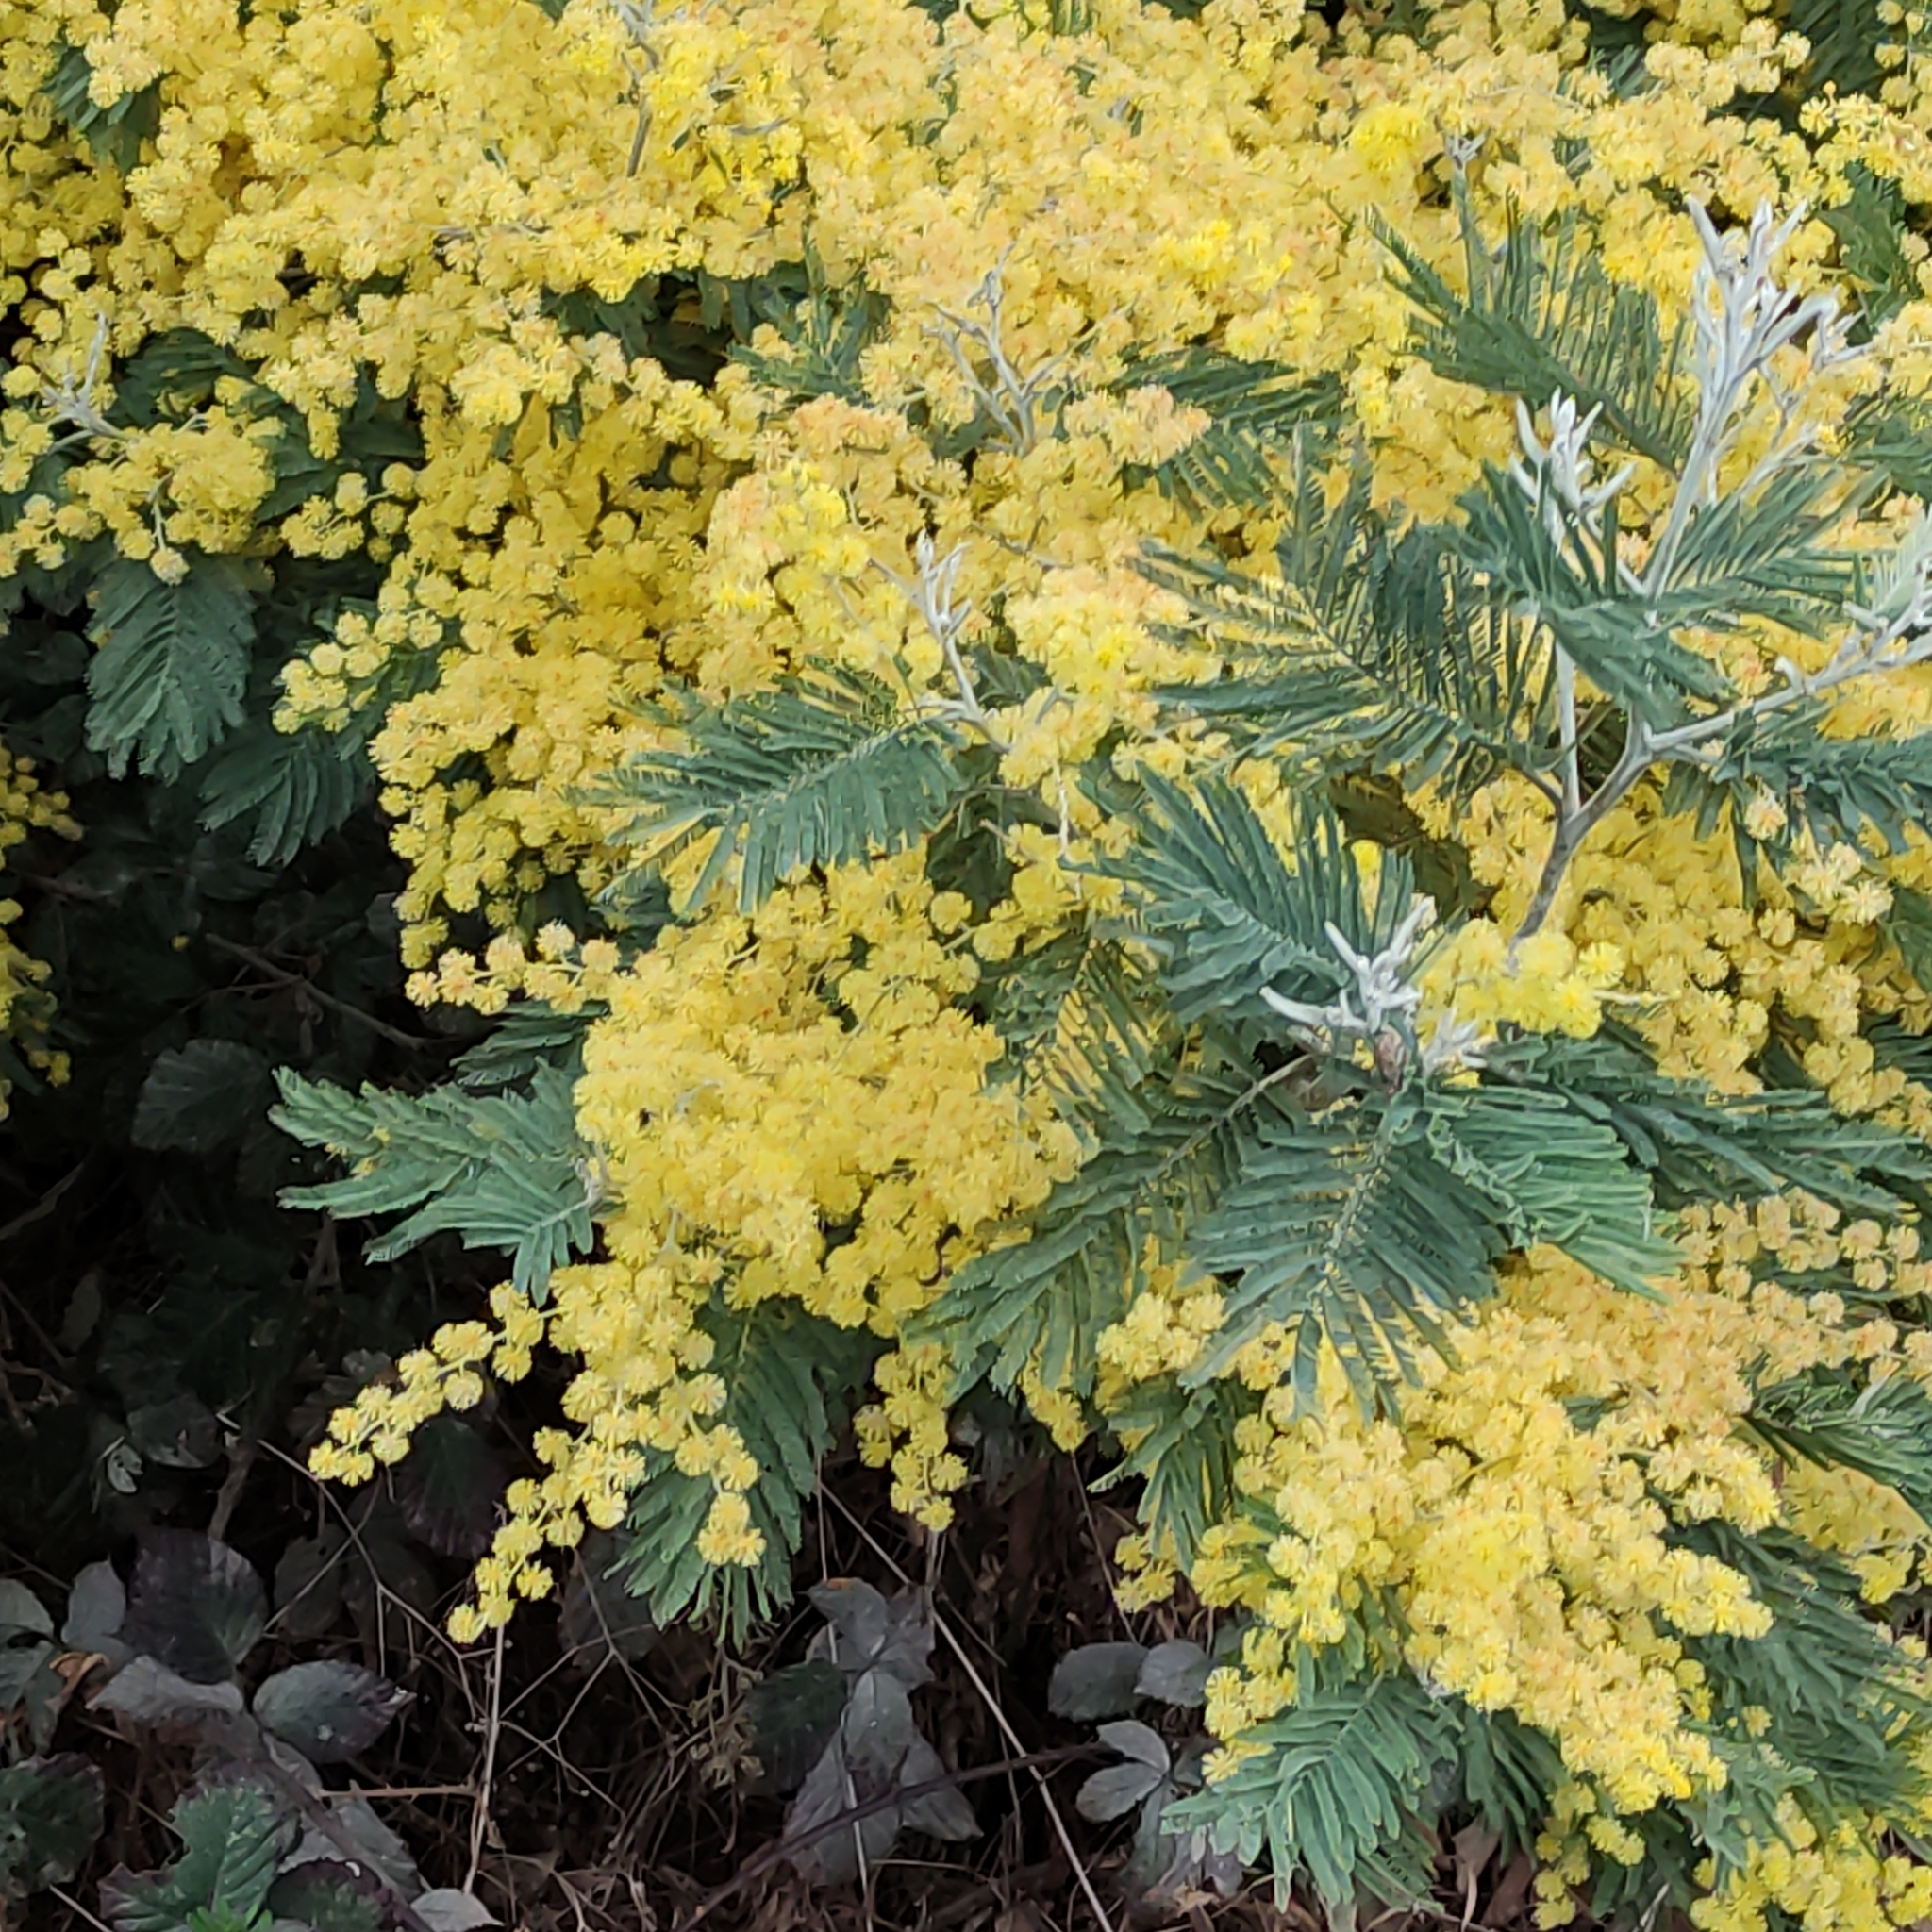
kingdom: Plantae
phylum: Tracheophyta
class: Magnoliopsida
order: Fabales
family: Fabaceae
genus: Acacia
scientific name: Acacia dealbata
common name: Silver wattle
